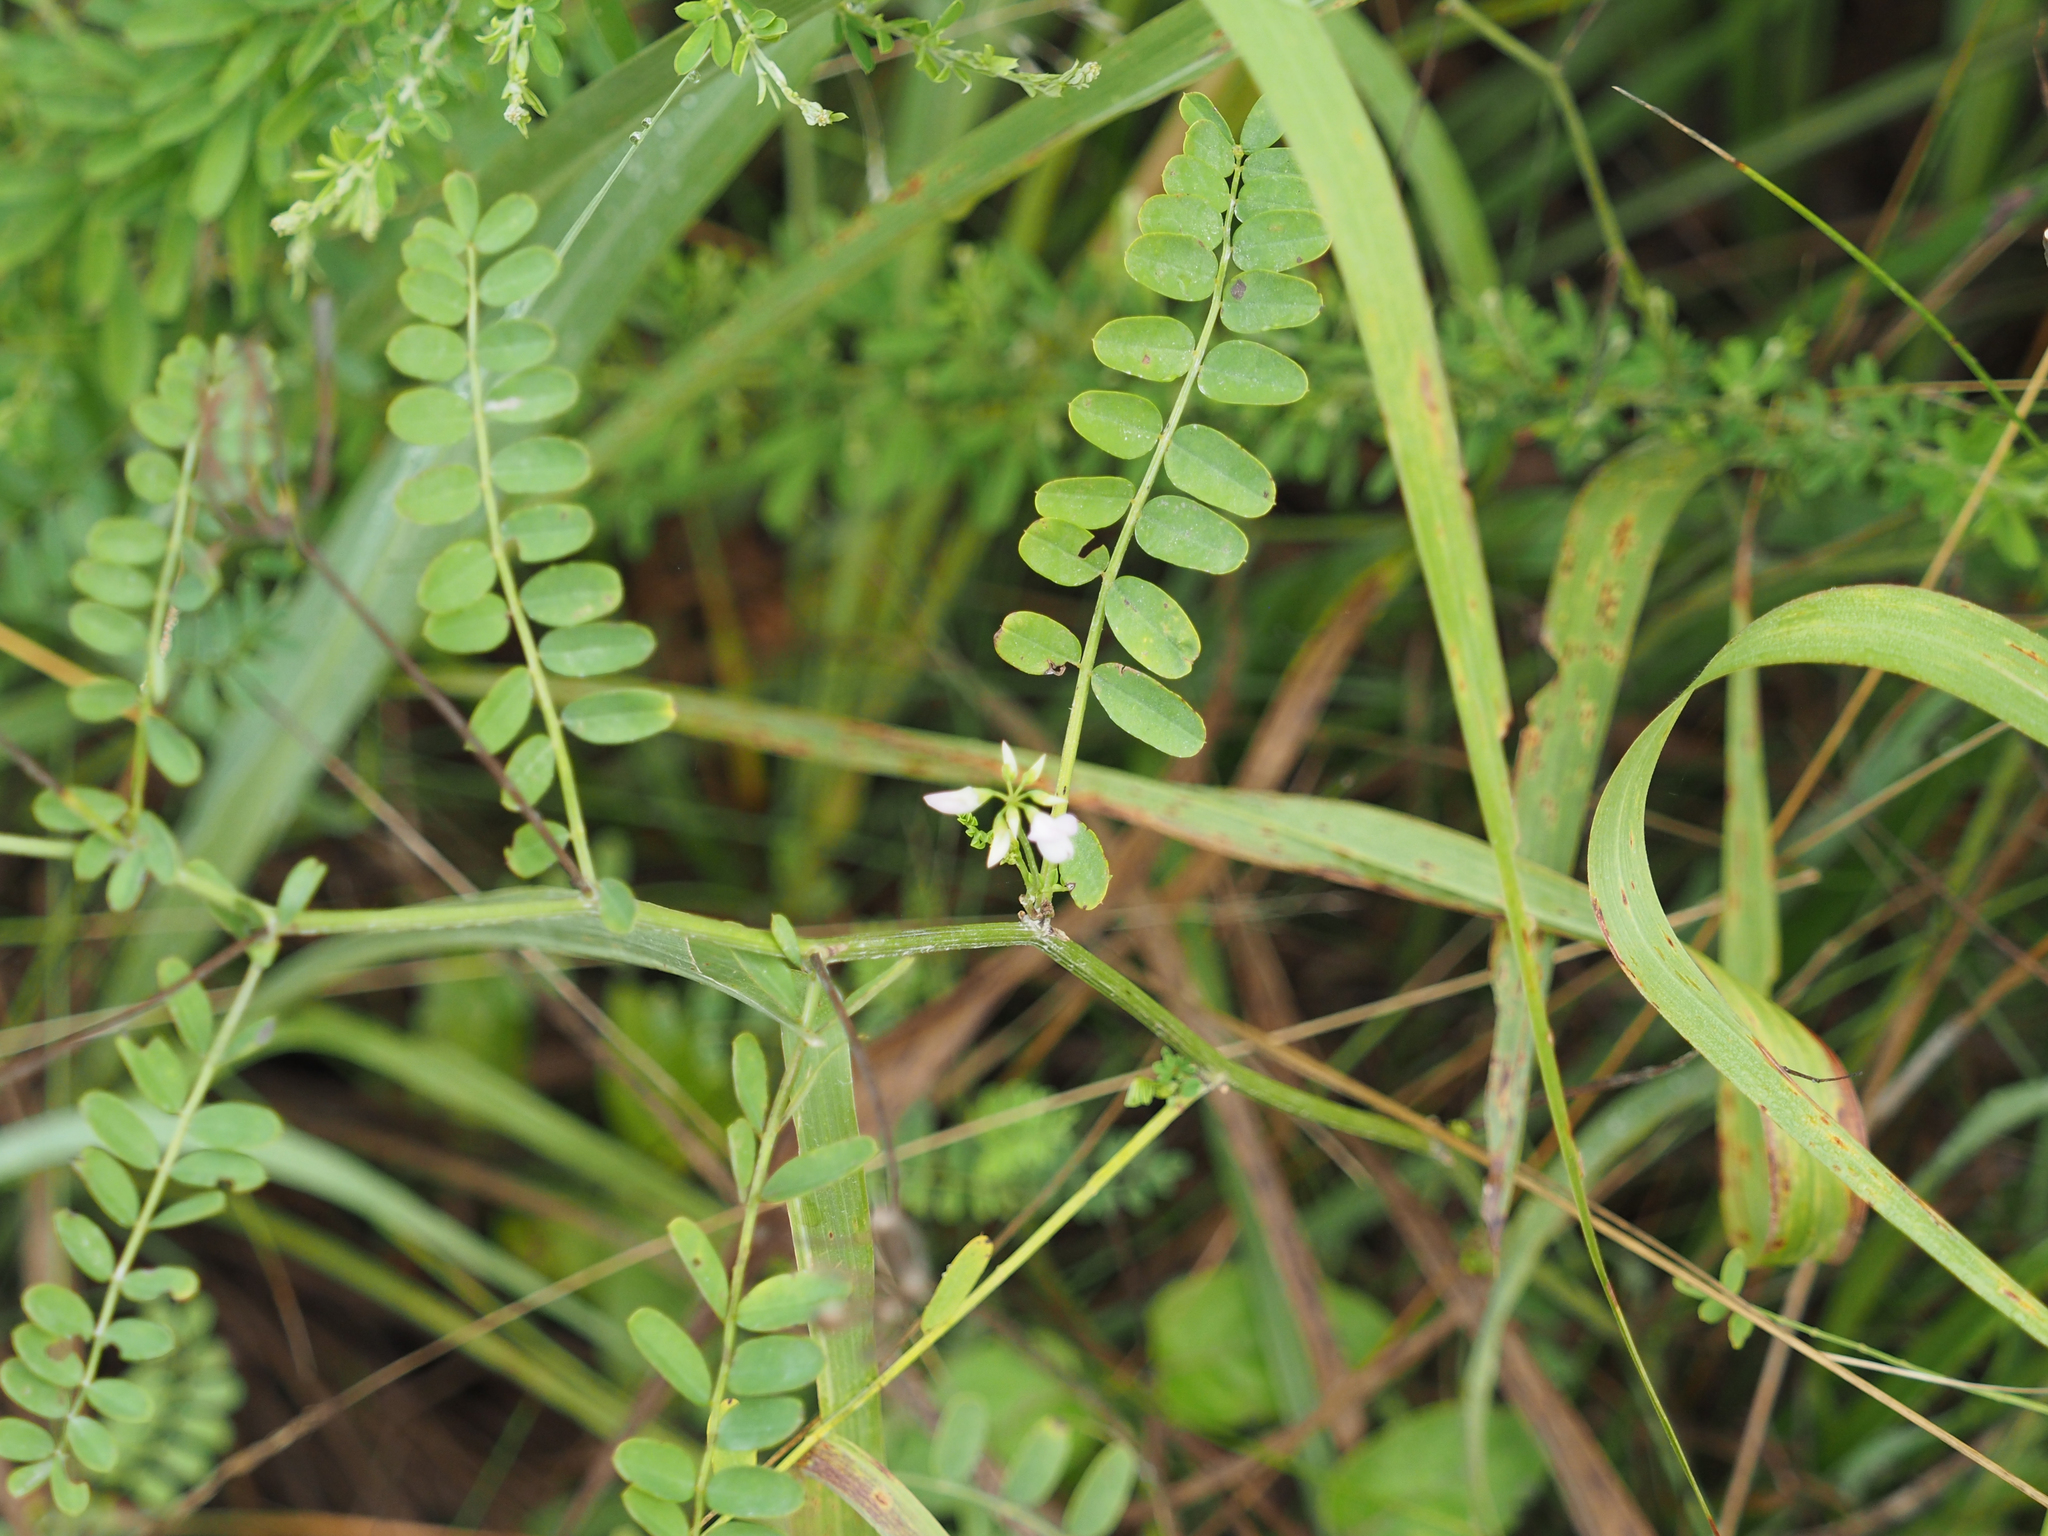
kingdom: Plantae
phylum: Tracheophyta
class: Magnoliopsida
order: Fabales
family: Fabaceae
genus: Coronilla
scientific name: Coronilla varia
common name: Crownvetch
